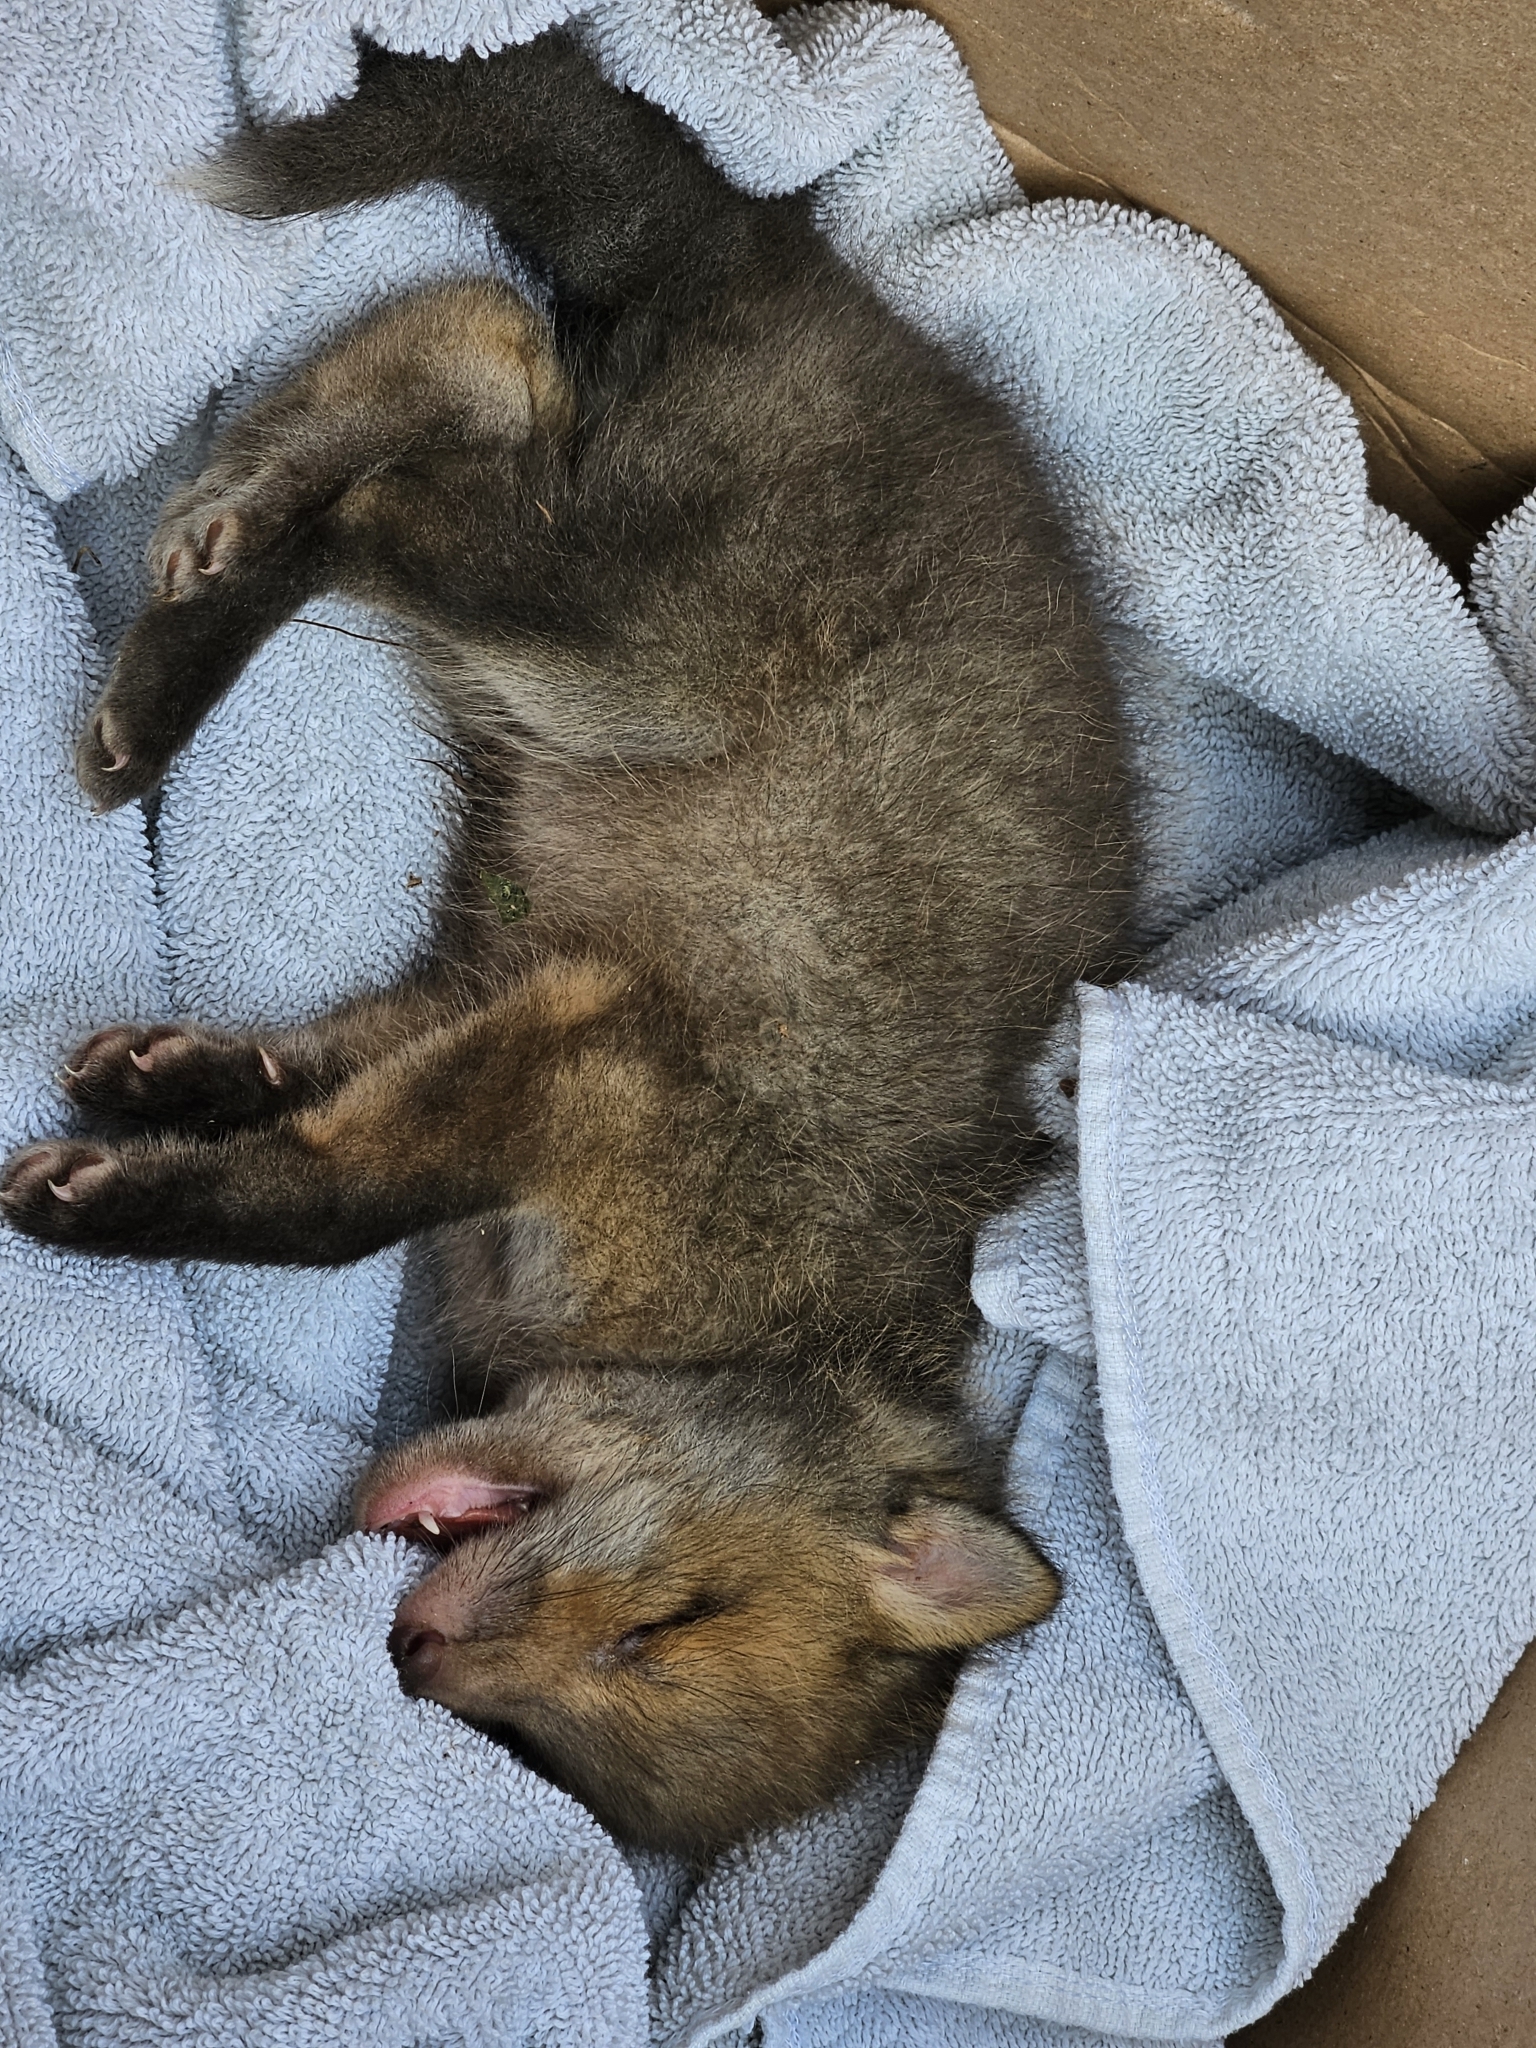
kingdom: Animalia
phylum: Chordata
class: Mammalia
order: Carnivora
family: Canidae
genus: Vulpes
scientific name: Vulpes vulpes
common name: Red fox
